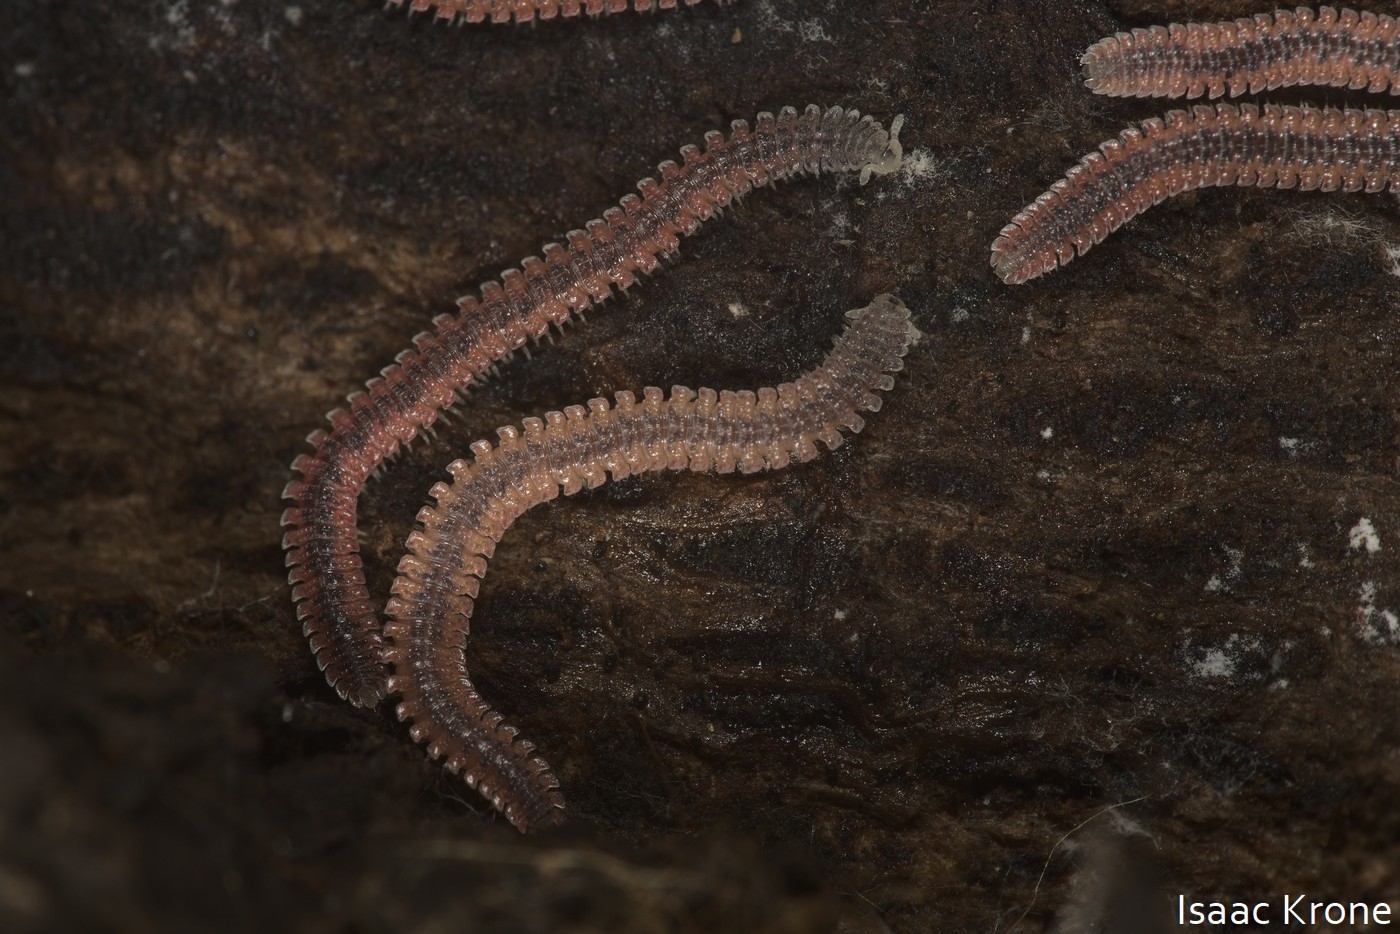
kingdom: Animalia
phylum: Arthropoda
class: Diplopoda
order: Platydesmida
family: Andrognathidae
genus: Gosodesmus
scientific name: Gosodesmus claremontus
